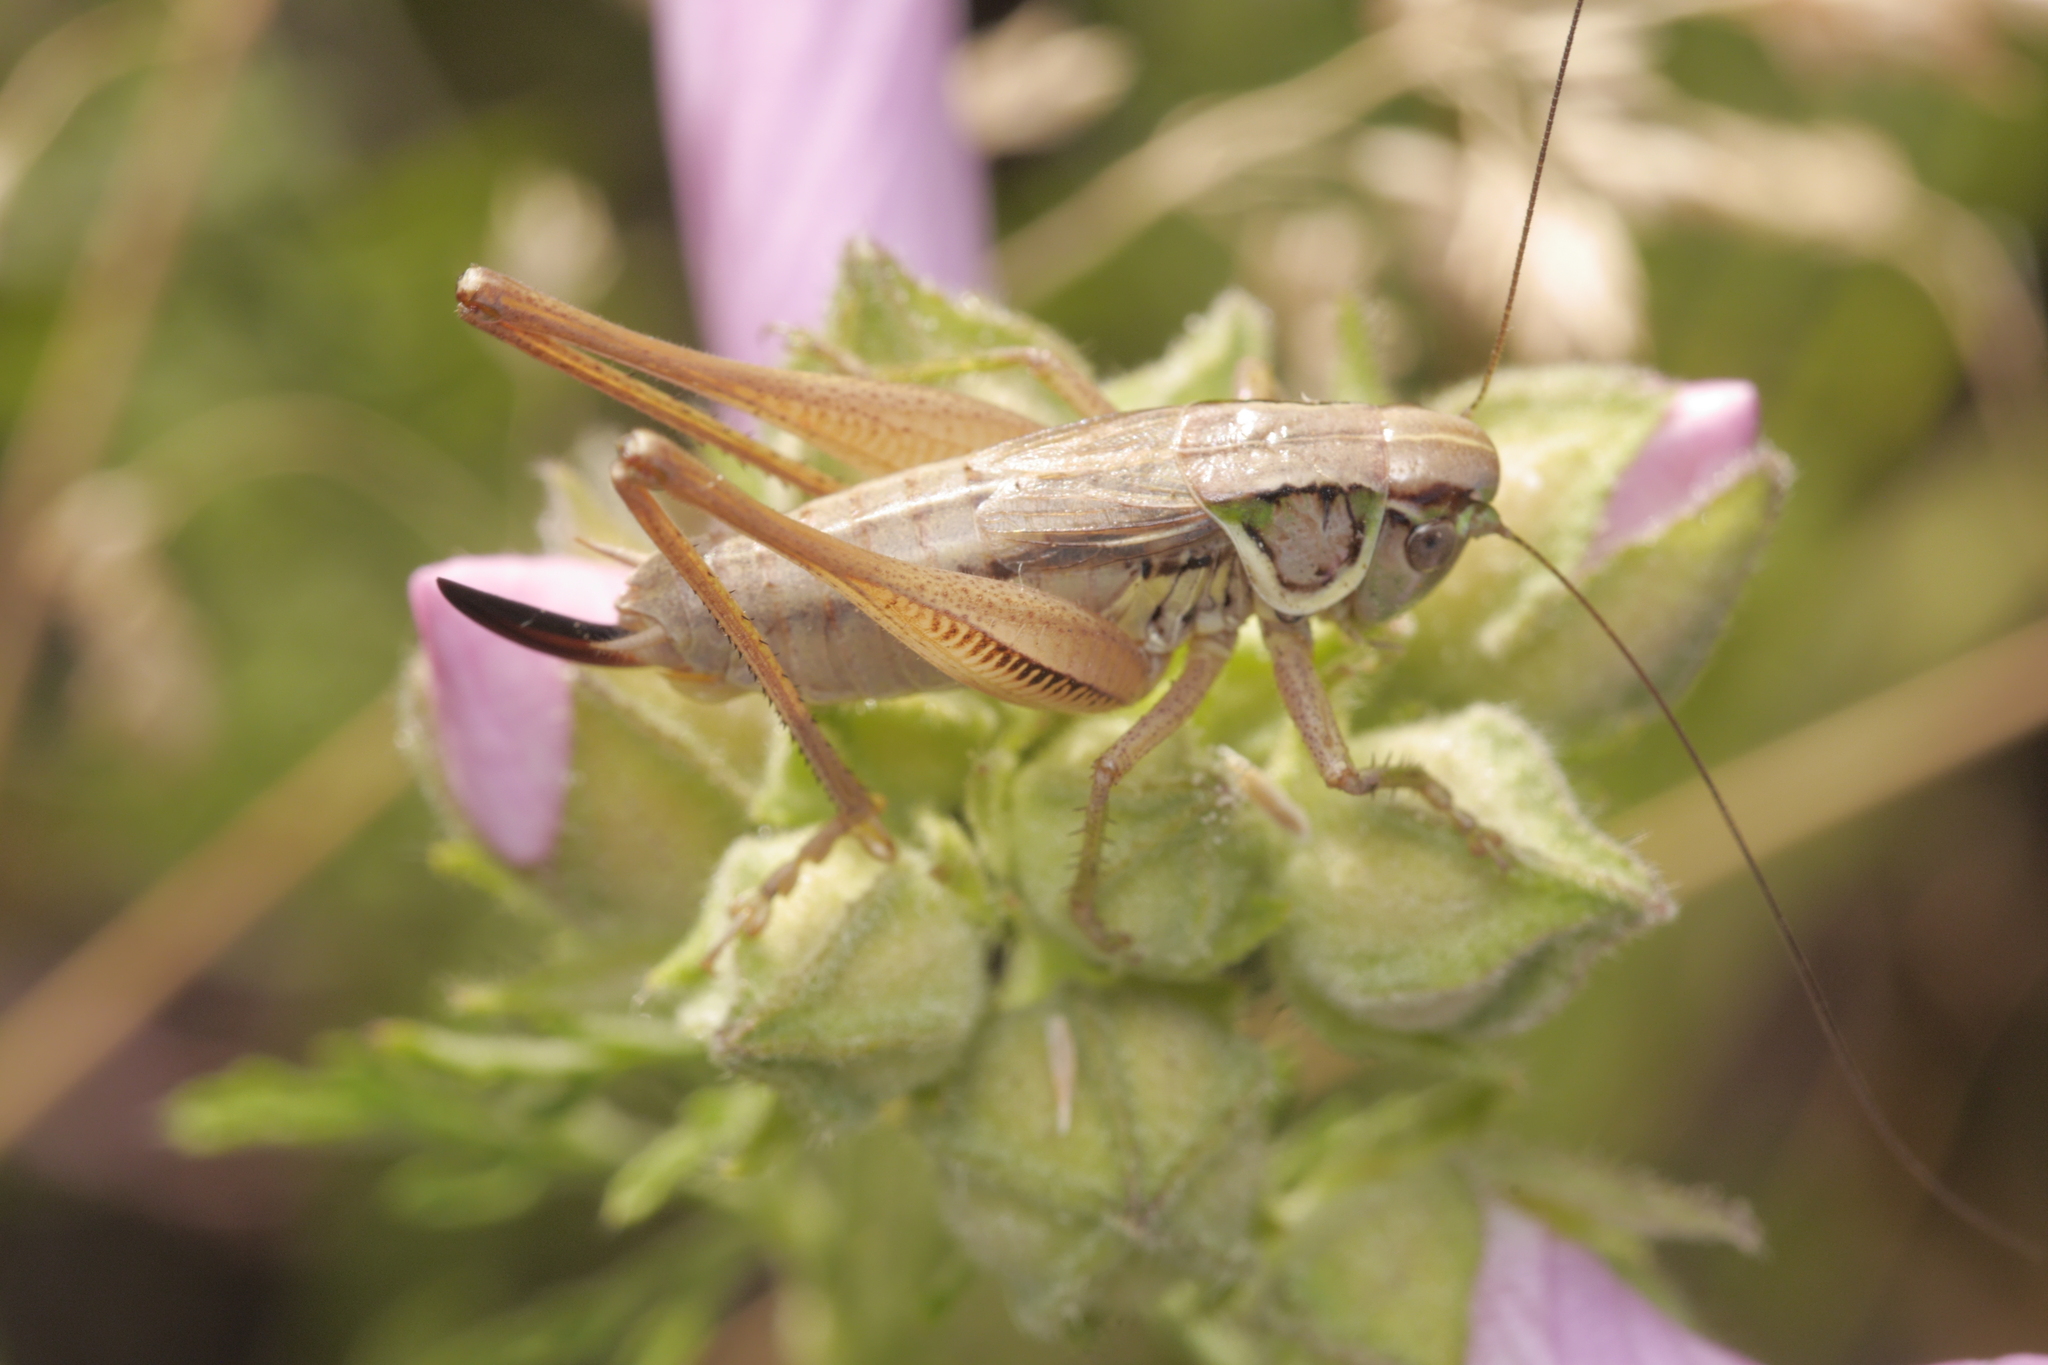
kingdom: Animalia
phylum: Arthropoda
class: Insecta
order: Orthoptera
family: Tettigoniidae
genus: Roeseliana
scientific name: Roeseliana roeselii
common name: Roesel's bush cricket
